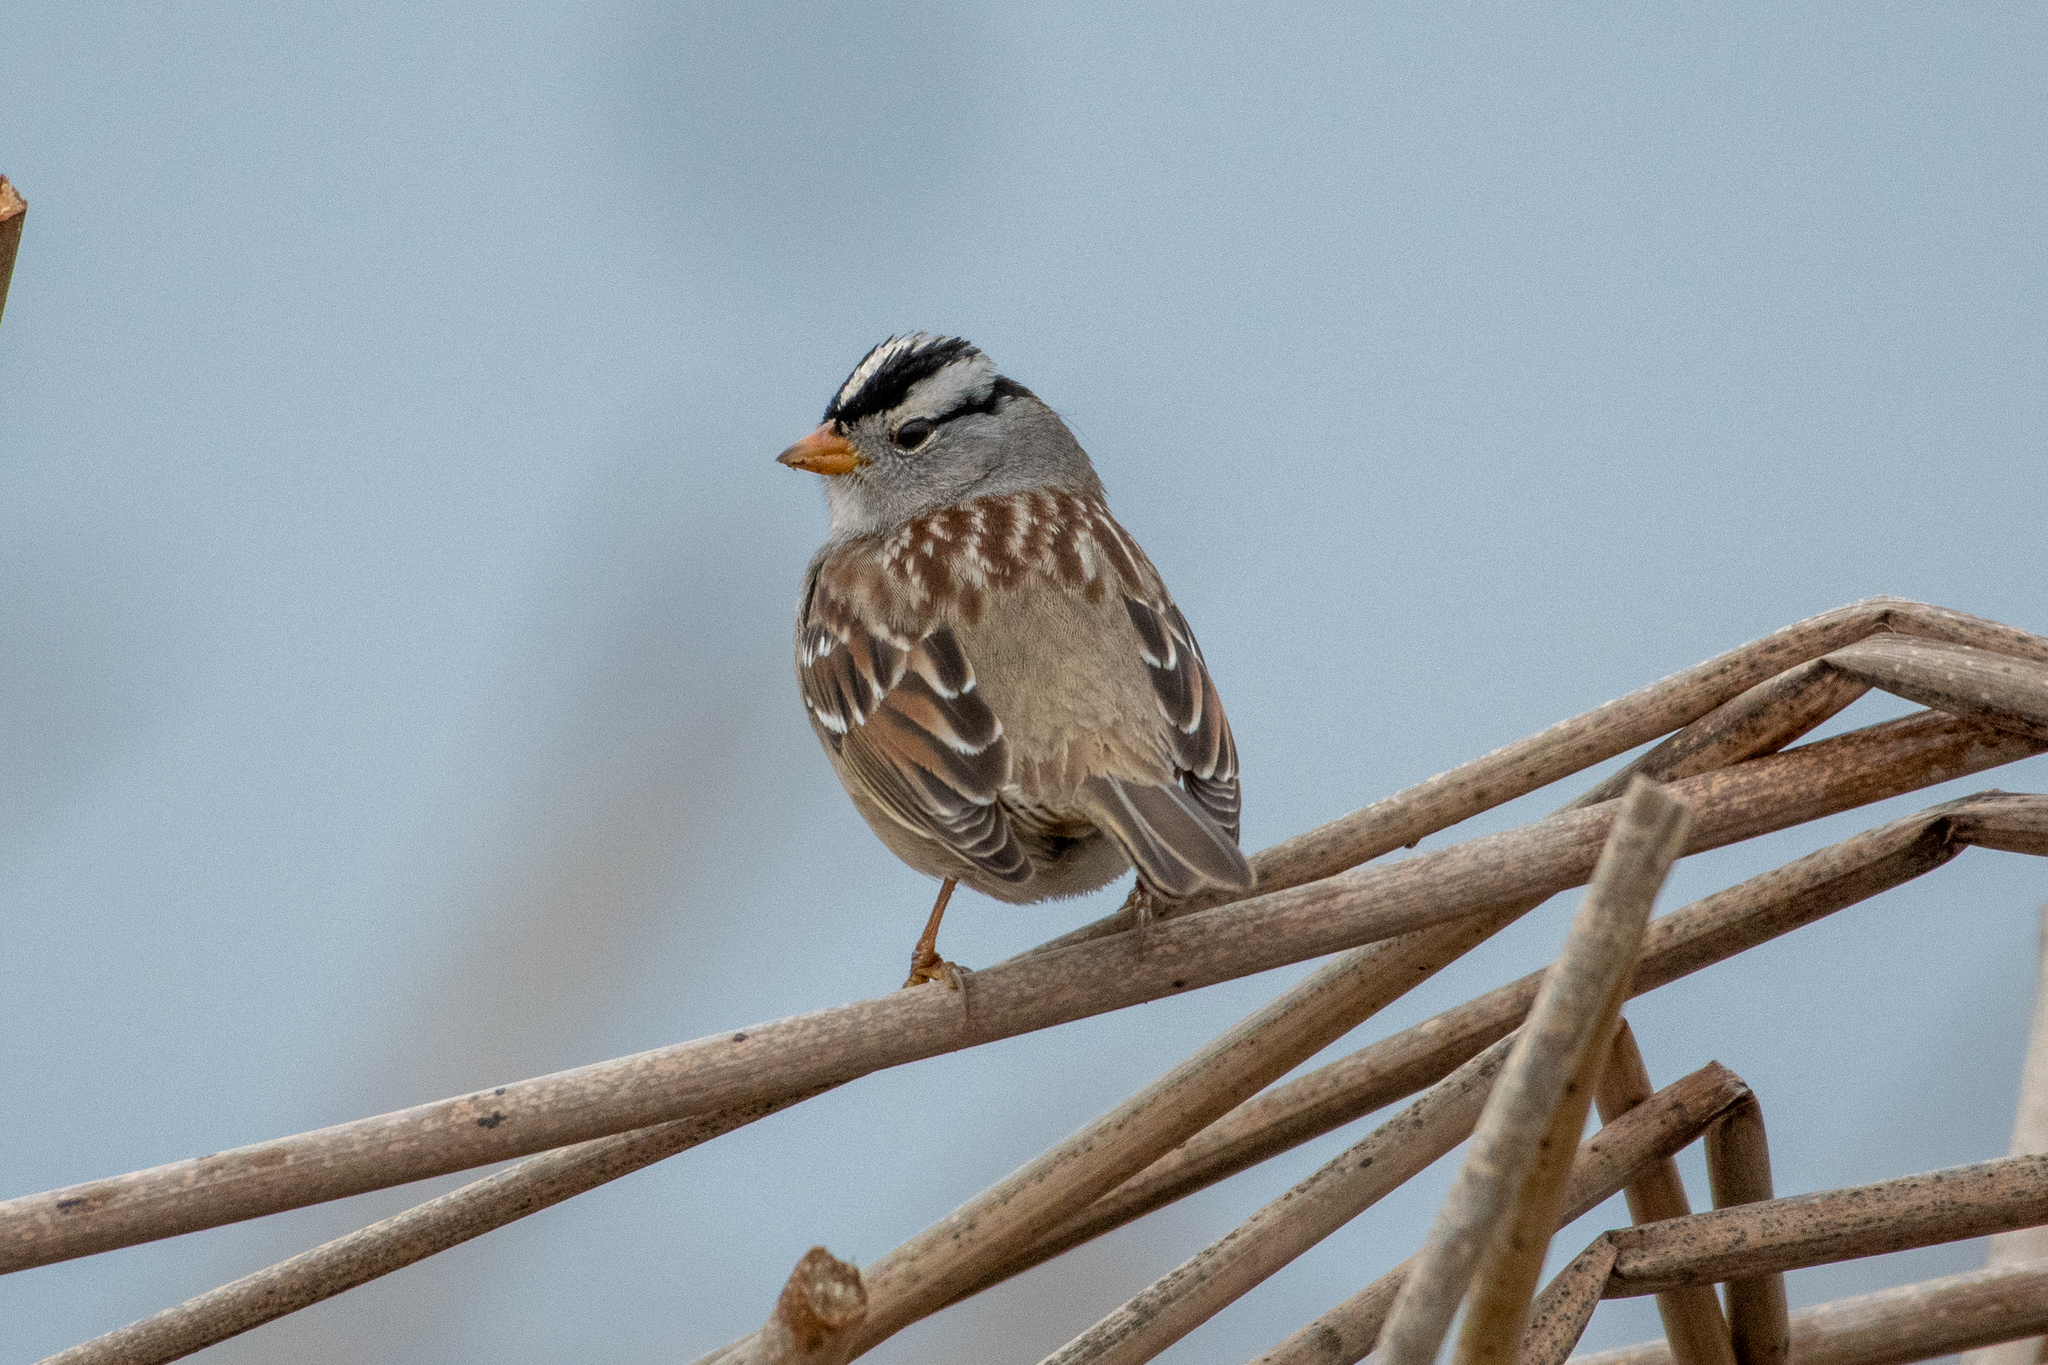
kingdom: Animalia
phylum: Chordata
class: Aves
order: Passeriformes
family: Passerellidae
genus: Zonotrichia
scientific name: Zonotrichia leucophrys
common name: White-crowned sparrow
